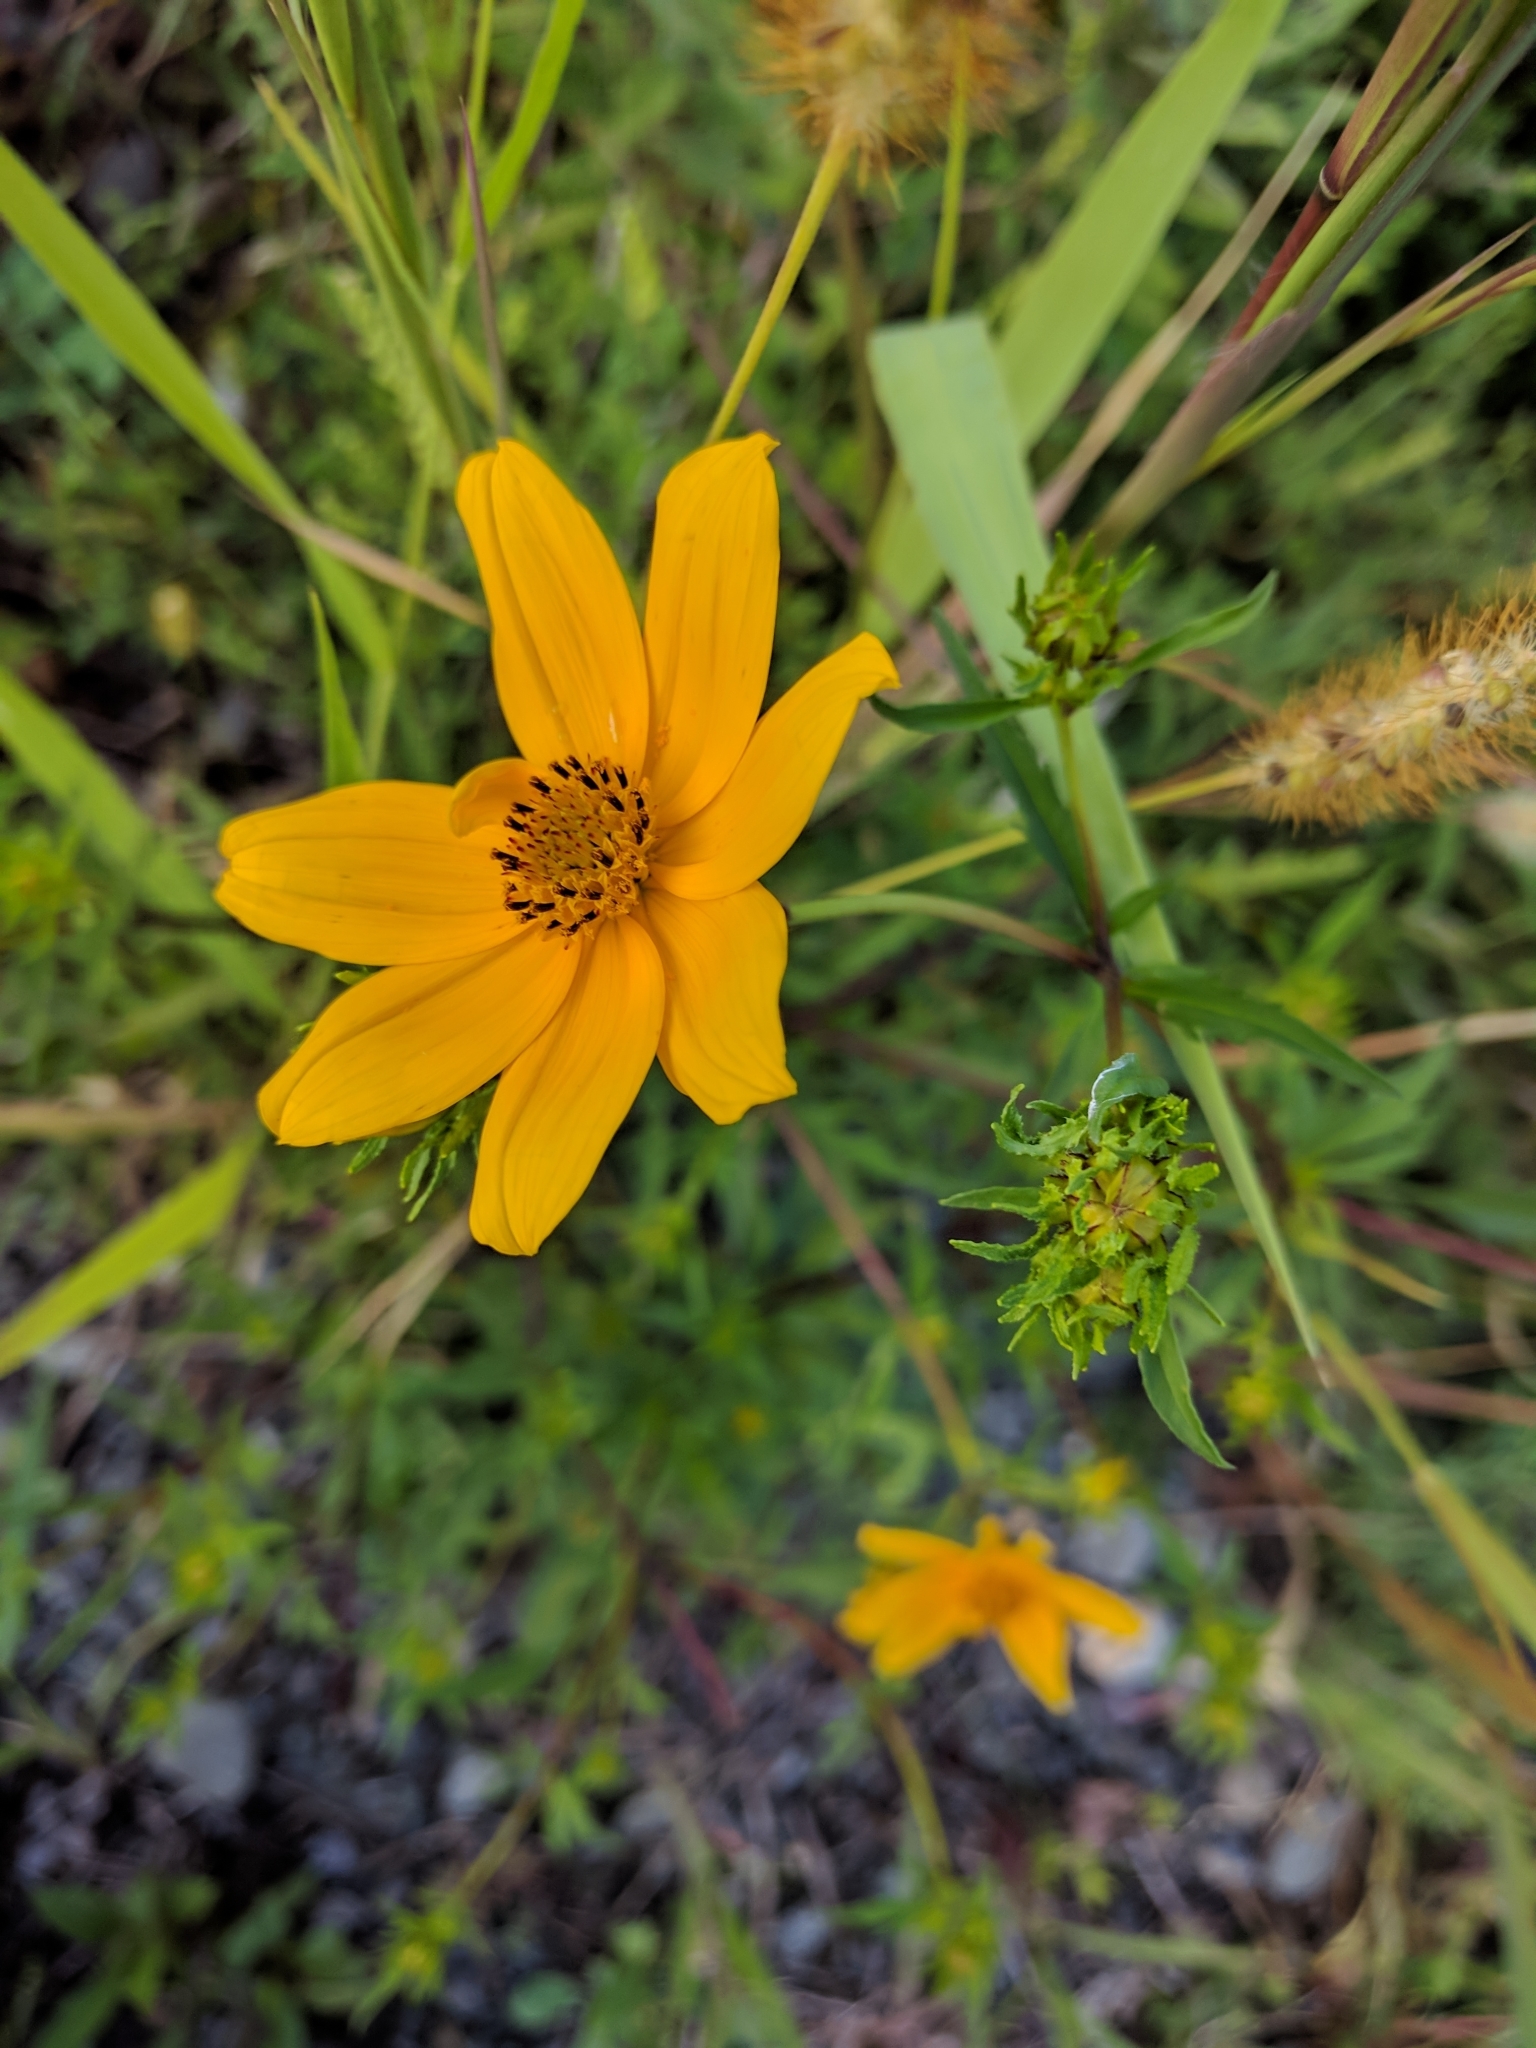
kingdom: Plantae
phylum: Tracheophyta
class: Magnoliopsida
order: Asterales
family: Asteraceae
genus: Bidens
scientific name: Bidens aristosa
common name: Western tickseed
